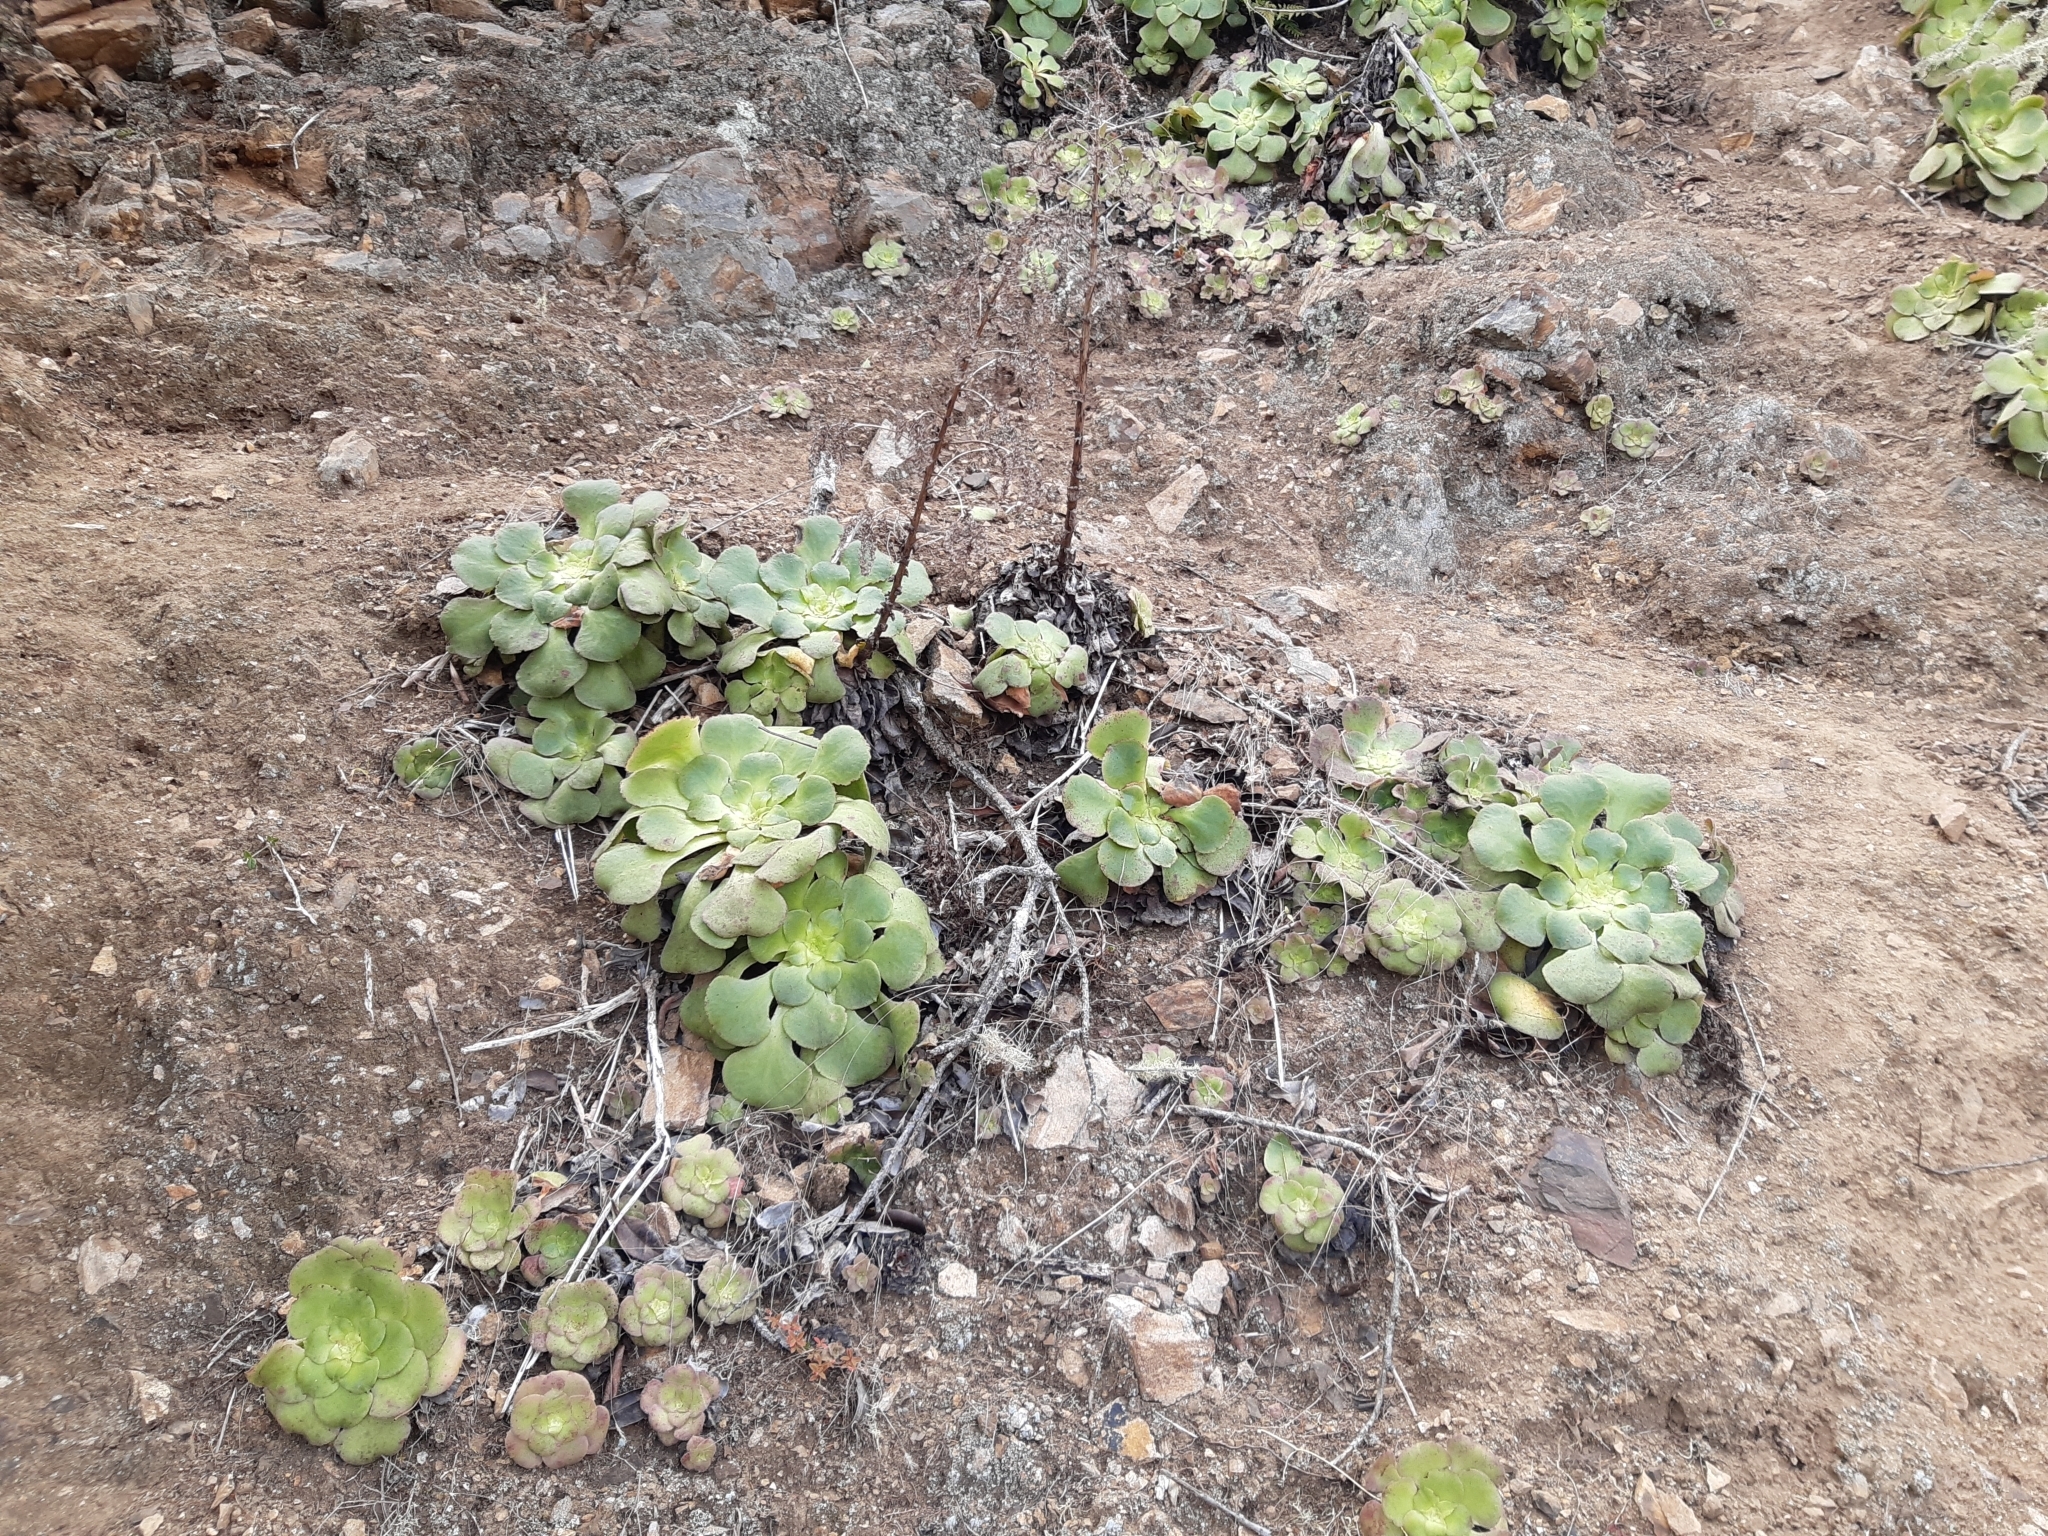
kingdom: Plantae
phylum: Tracheophyta
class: Magnoliopsida
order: Saxifragales
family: Crassulaceae
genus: Aeonium
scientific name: Aeonium canariense
